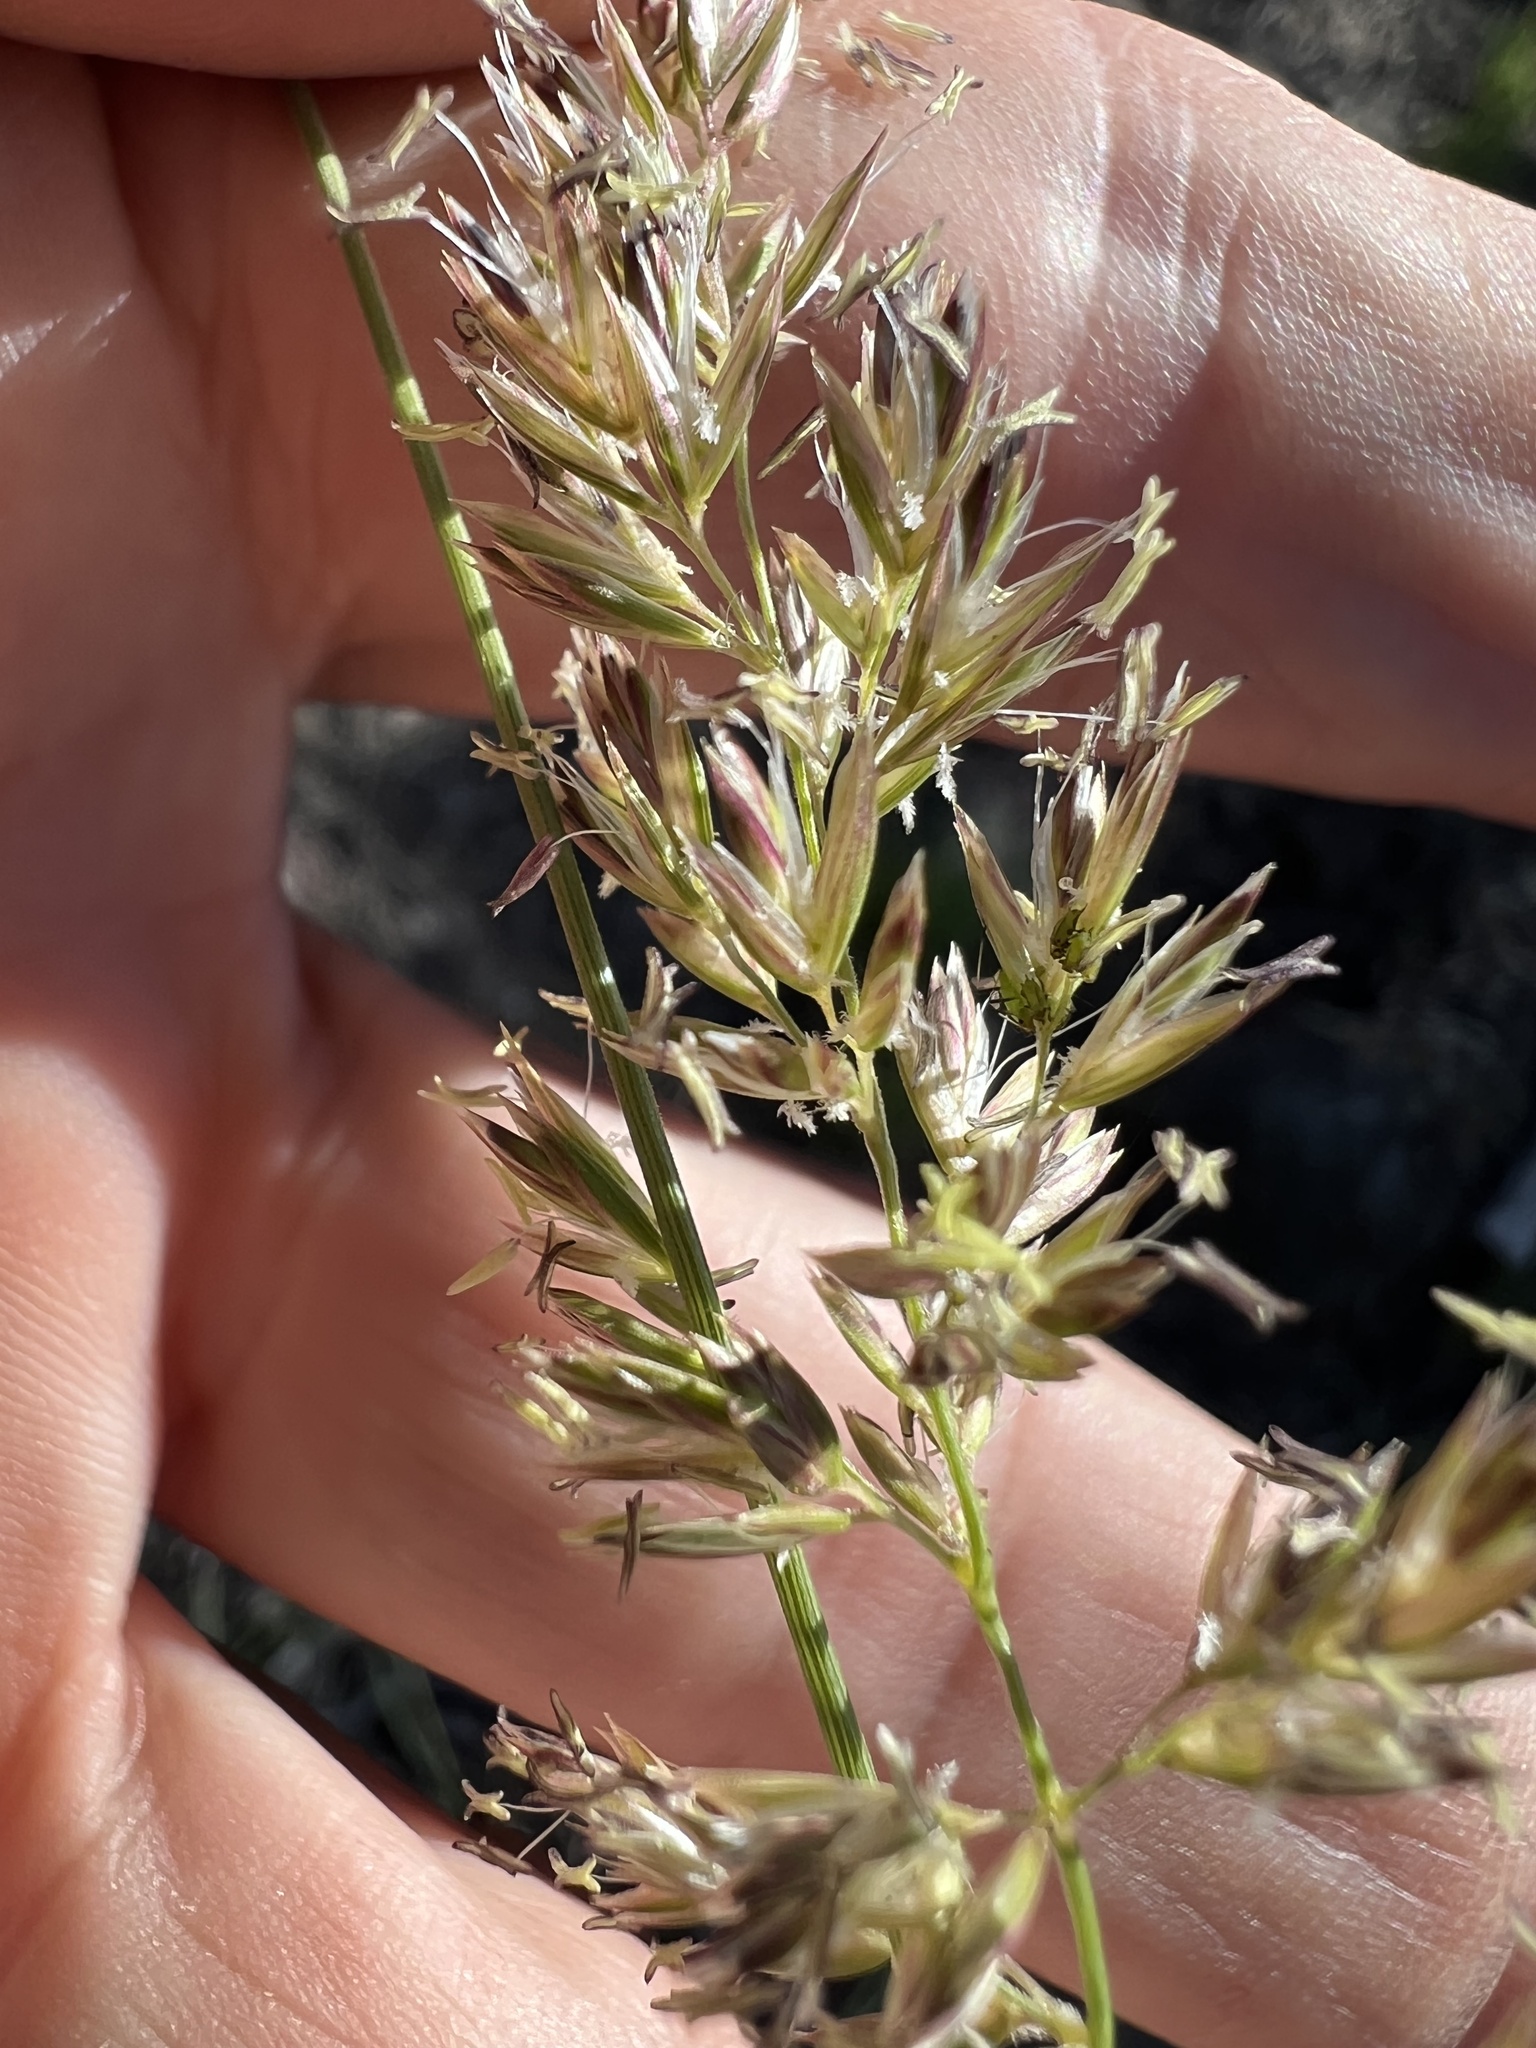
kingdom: Plantae
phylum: Tracheophyta
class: Liliopsida
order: Poales
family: Poaceae
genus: Koeleria
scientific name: Koeleria macrantha
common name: Crested hair-grass
